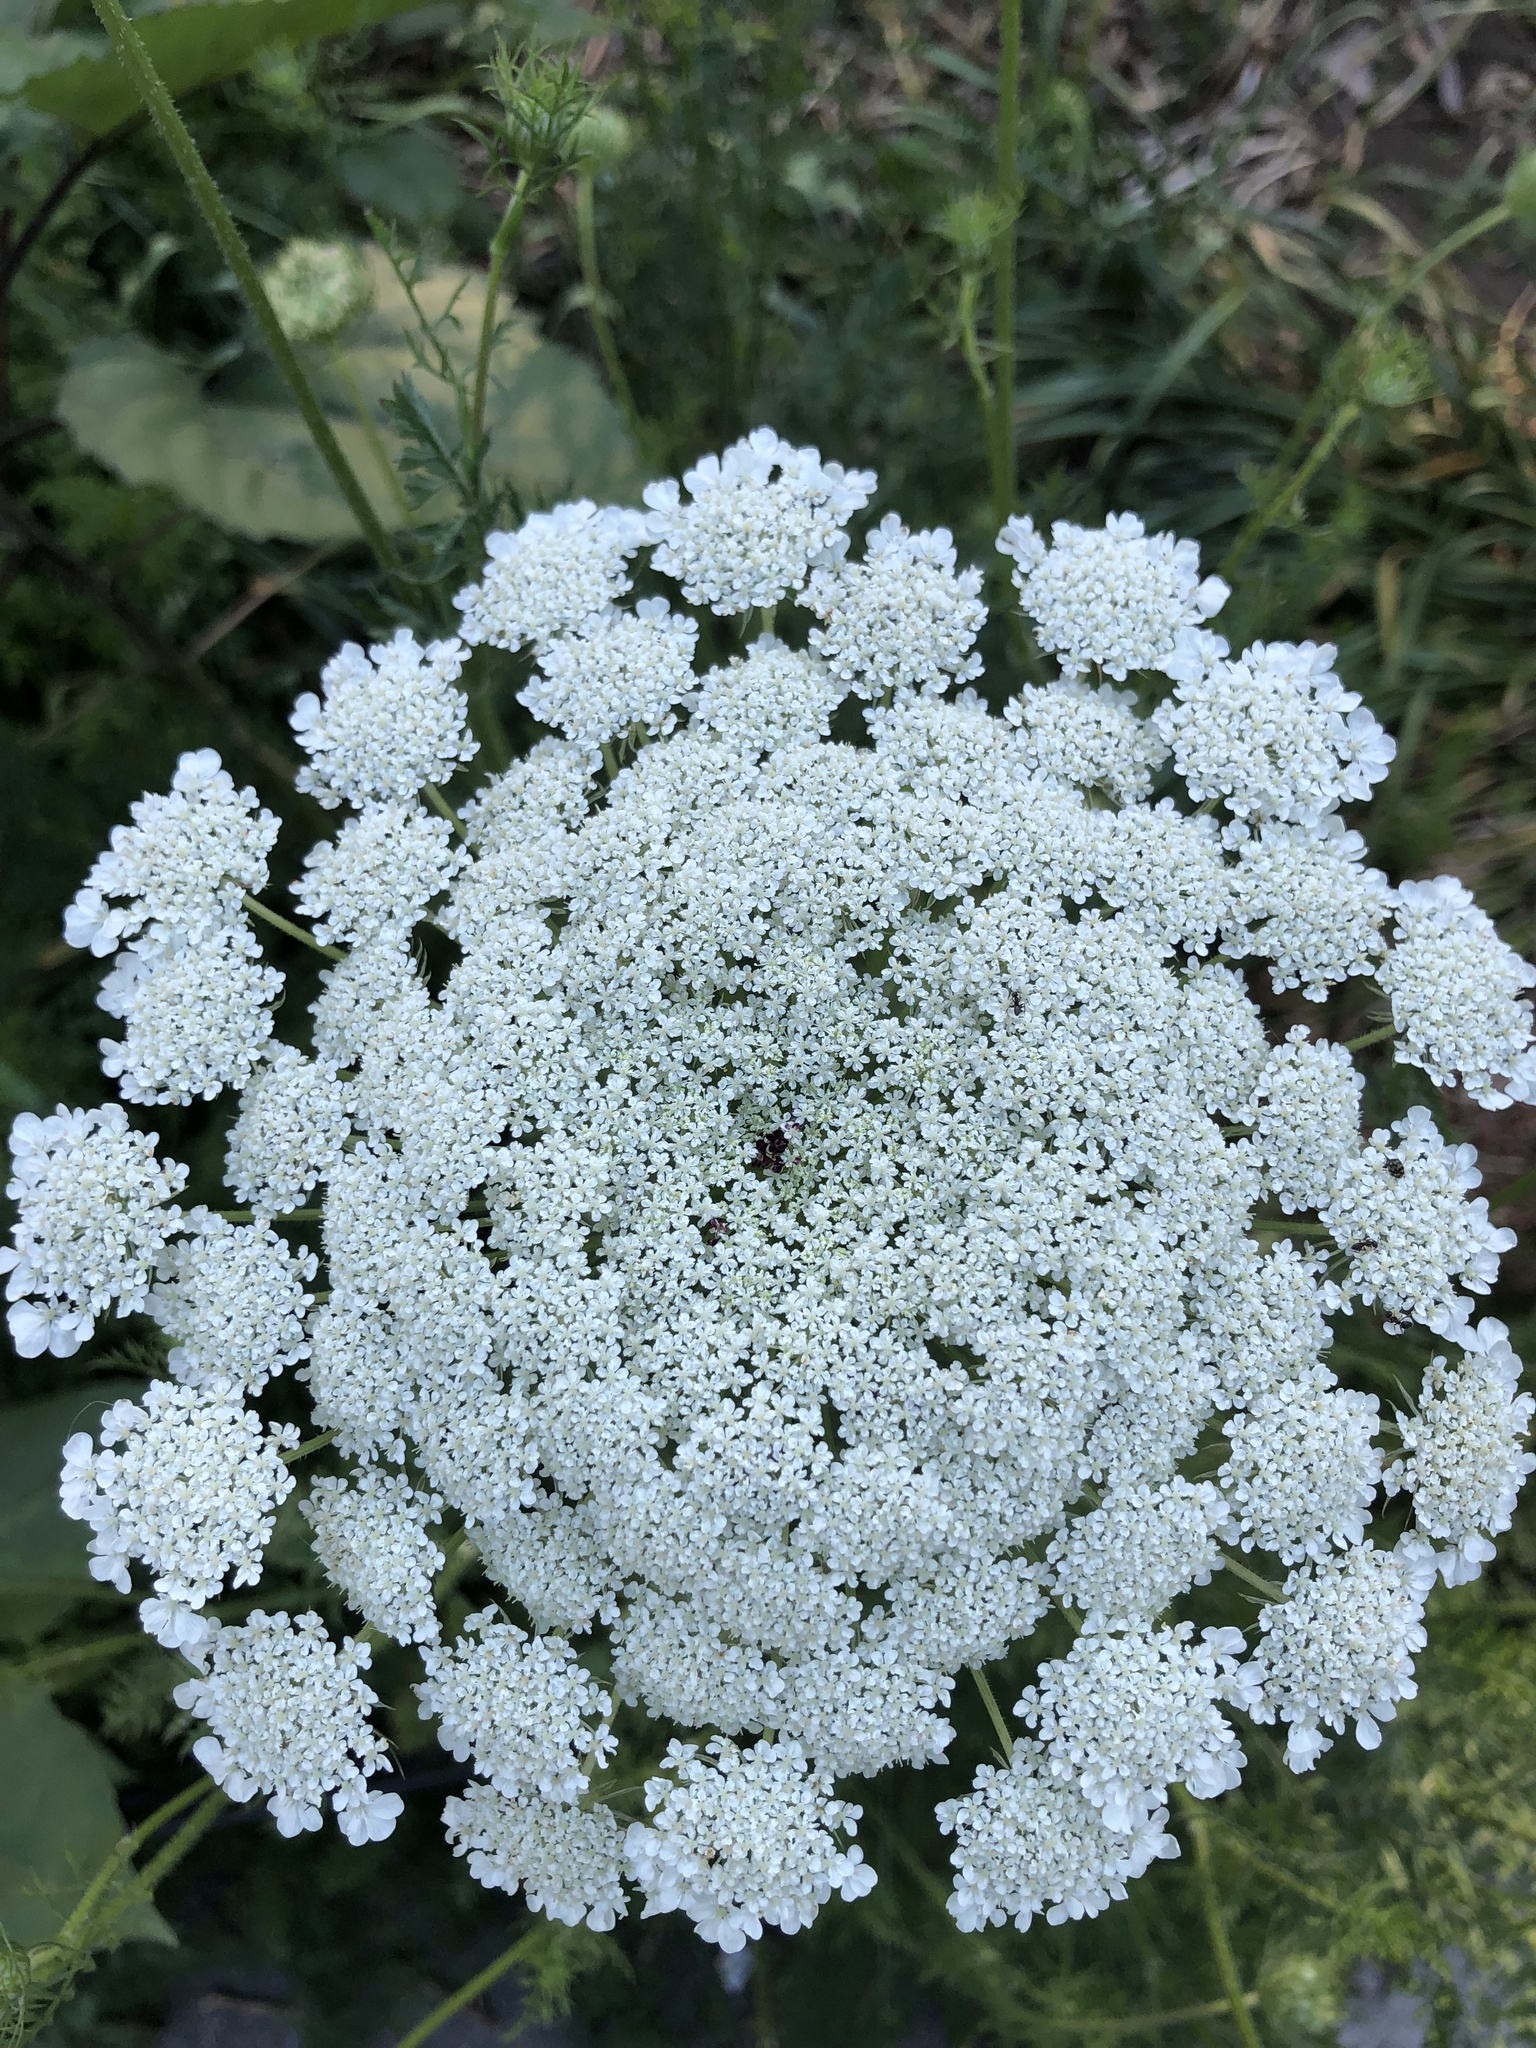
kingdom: Plantae
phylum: Tracheophyta
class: Magnoliopsida
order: Apiales
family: Apiaceae
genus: Daucus
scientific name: Daucus carota
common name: Wild carrot
